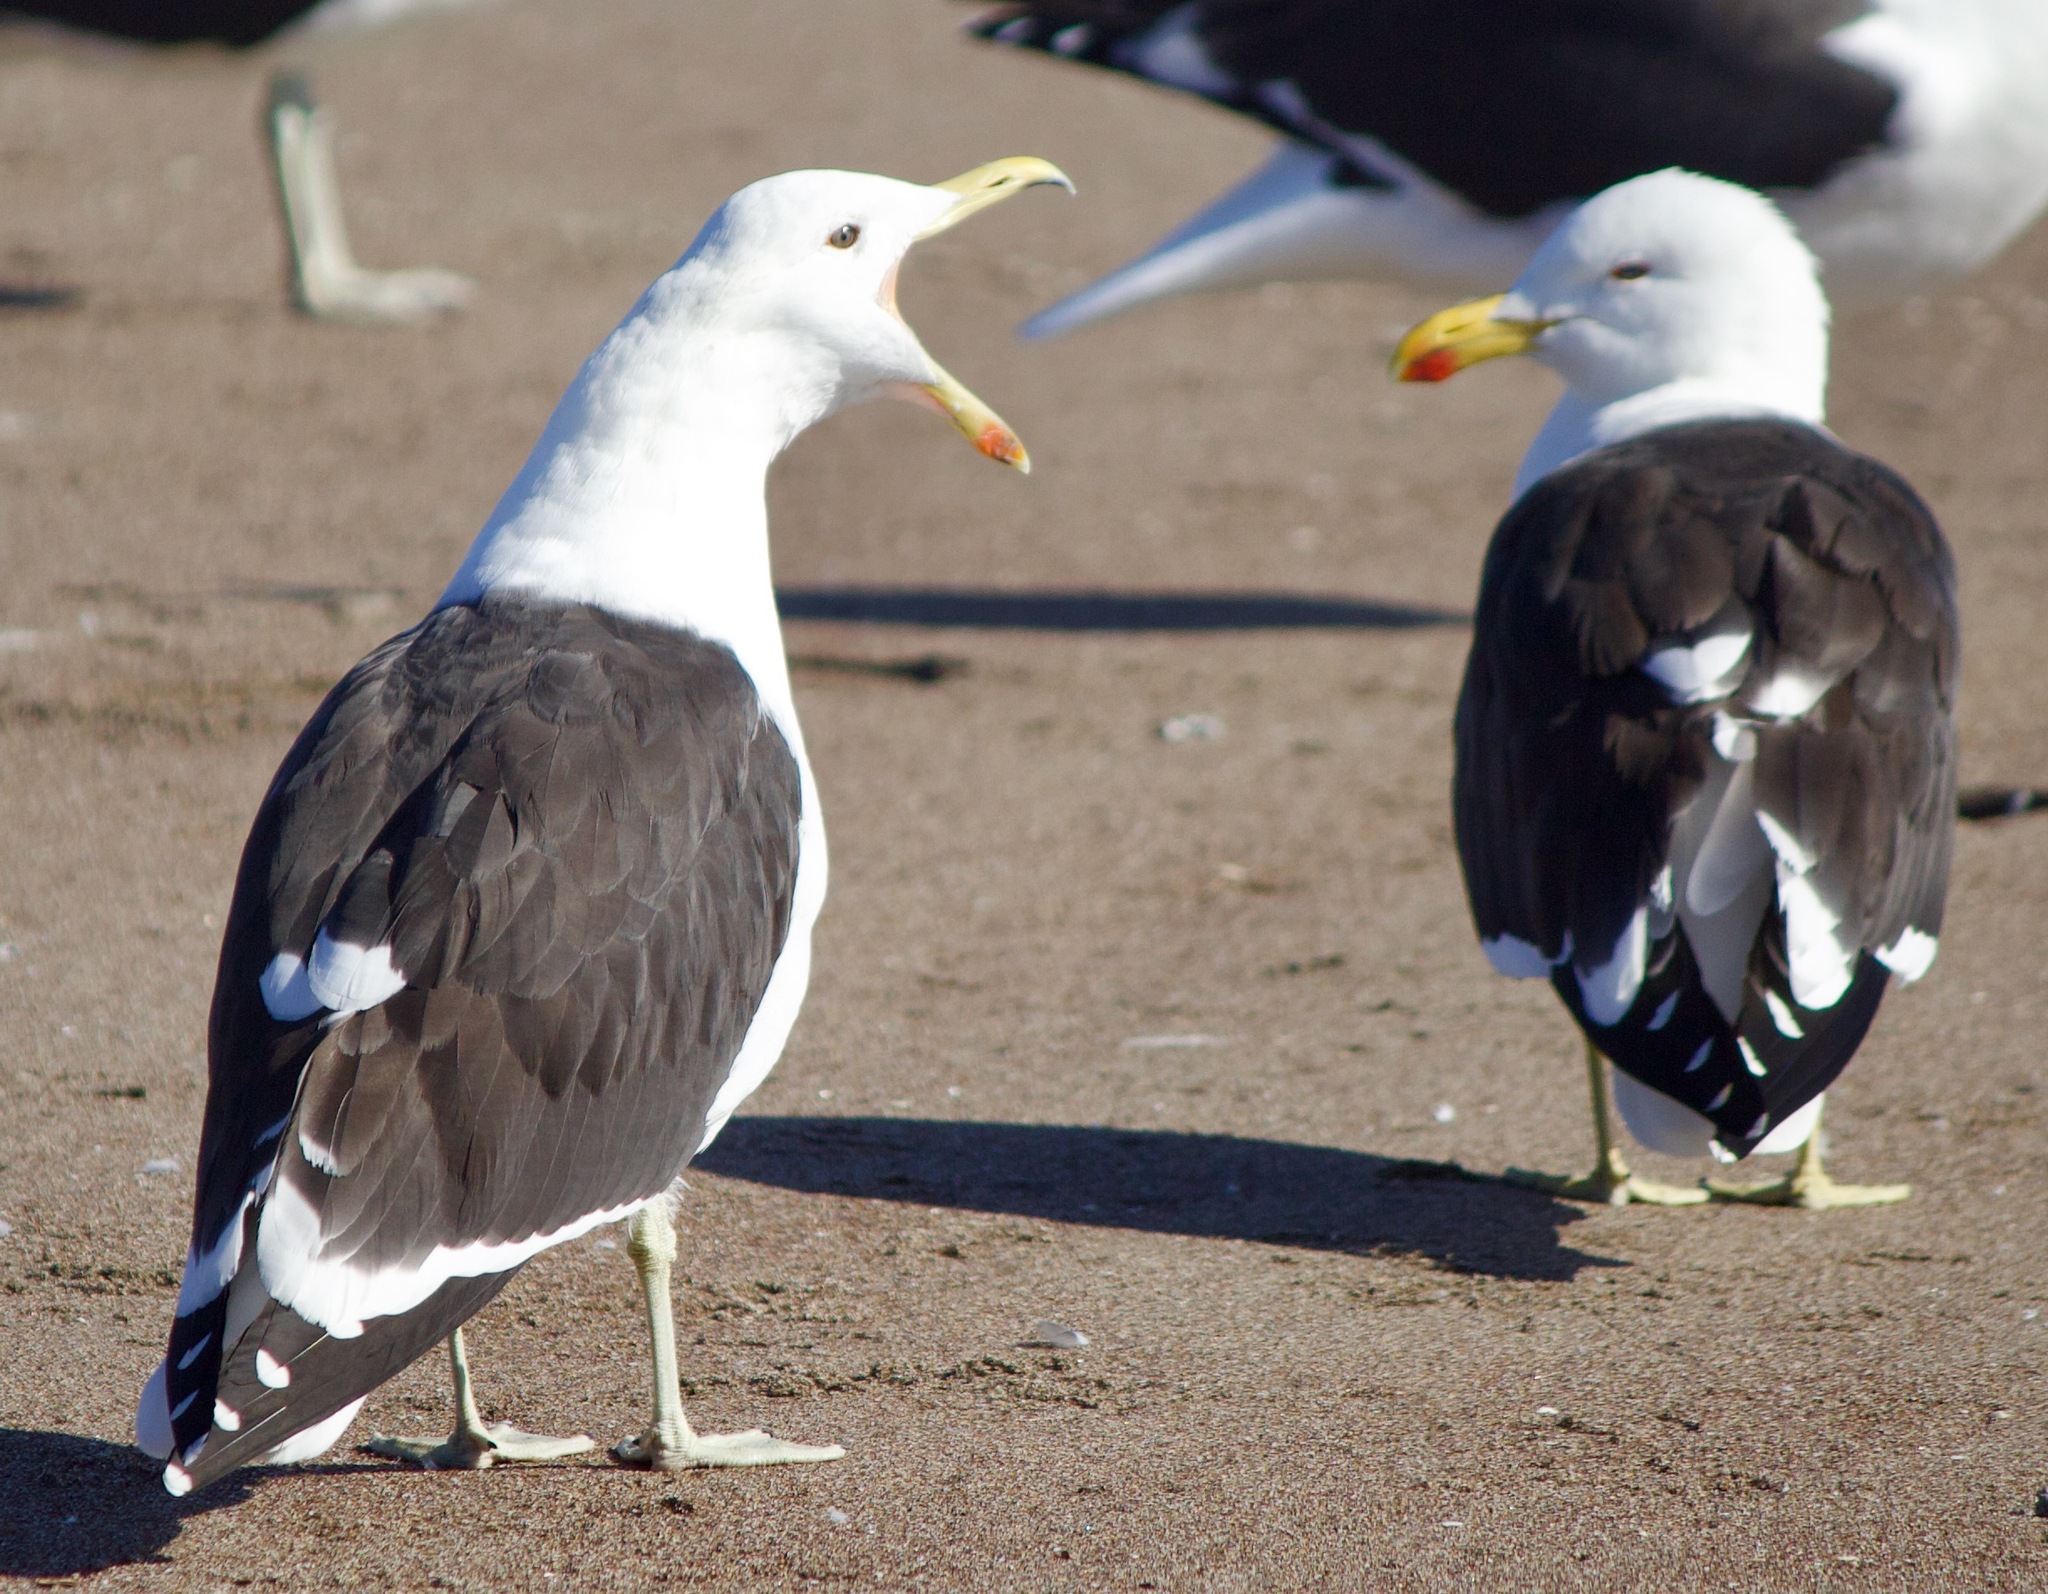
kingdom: Animalia
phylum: Chordata
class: Aves
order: Charadriiformes
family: Laridae
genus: Larus
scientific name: Larus dominicanus
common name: Kelp gull
